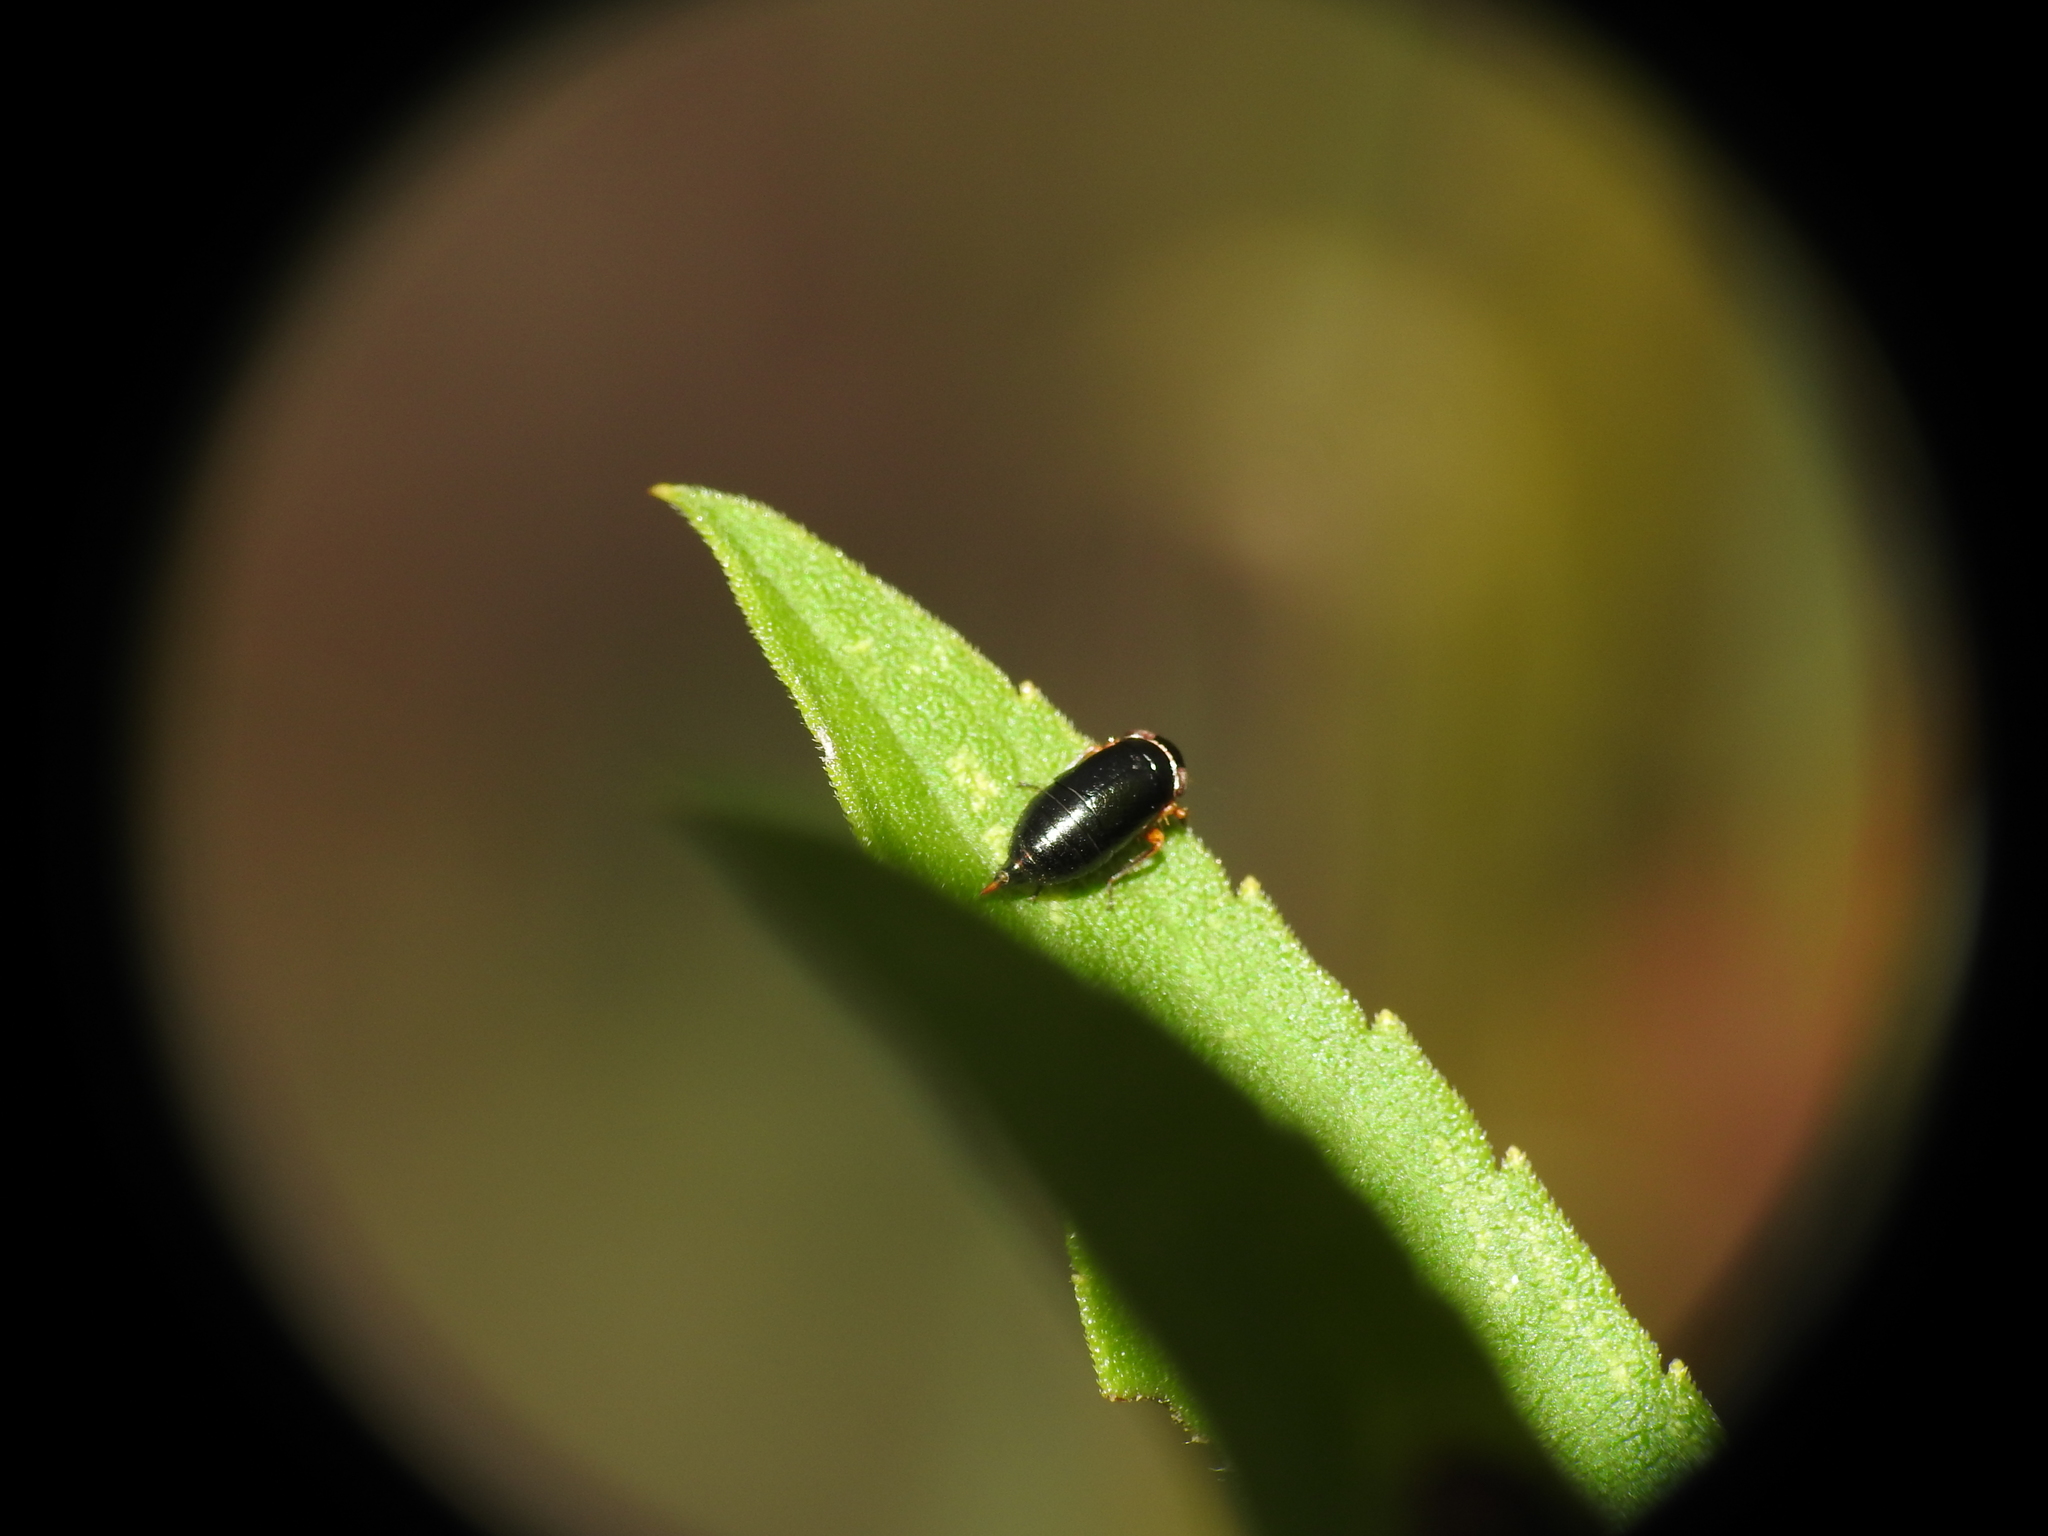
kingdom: Animalia
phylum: Arthropoda
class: Insecta
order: Hemiptera
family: Cicadellidae
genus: Driotura
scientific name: Driotura gammaroides
